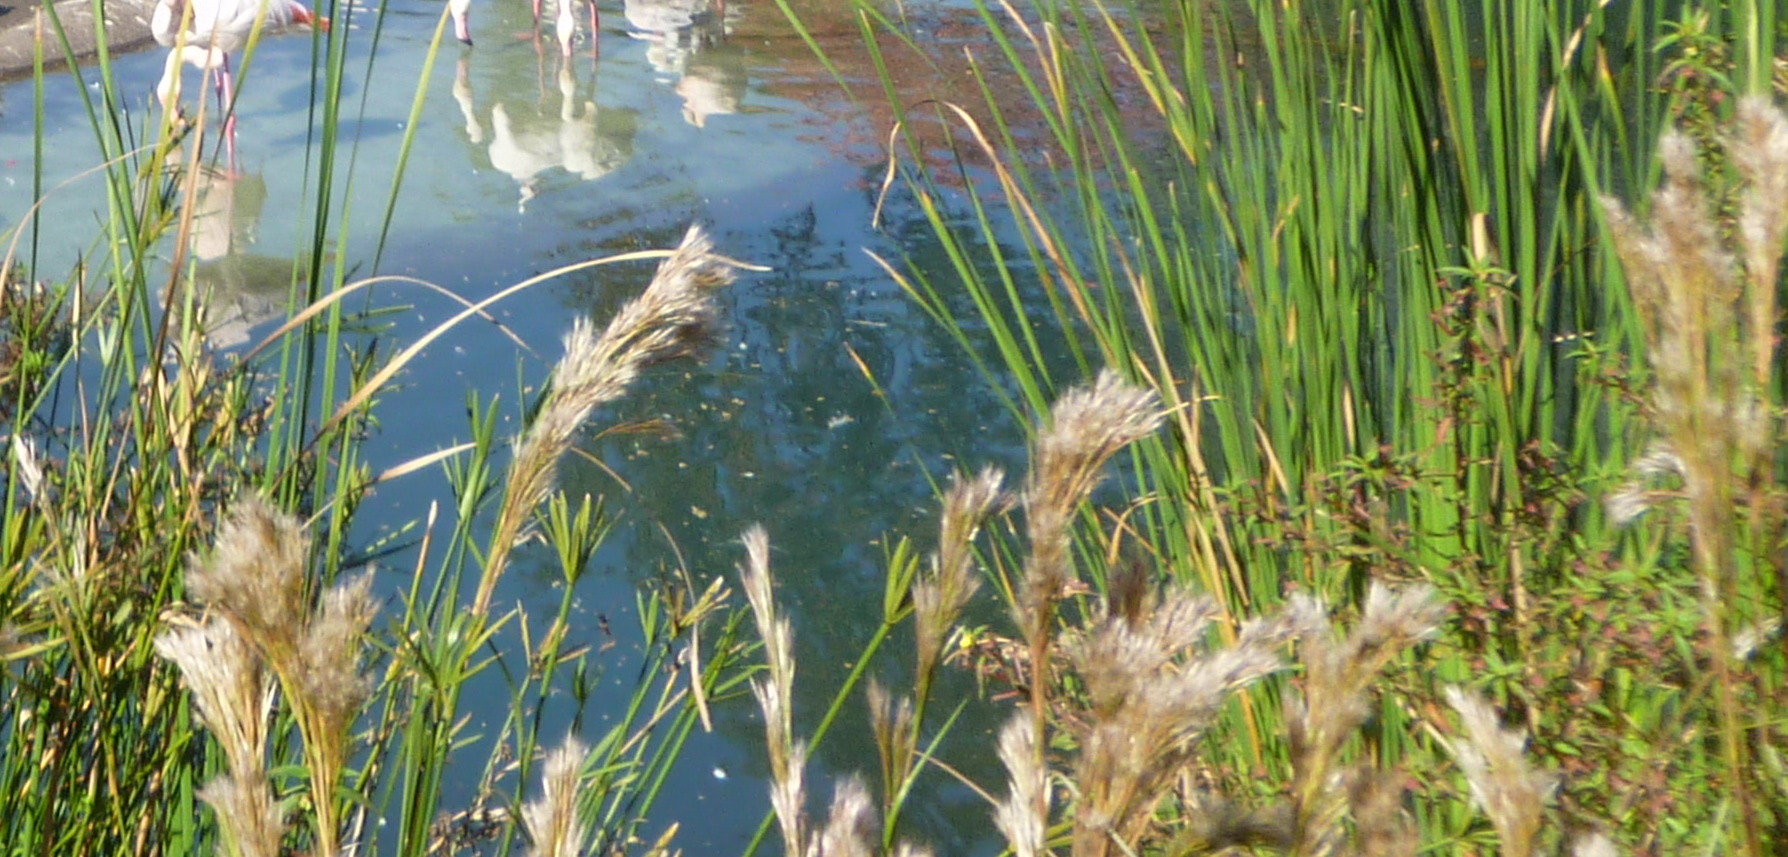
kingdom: Plantae
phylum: Tracheophyta
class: Liliopsida
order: Poales
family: Poaceae
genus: Andropogon
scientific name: Andropogon tenuispatheus
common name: Bushy bluestem
